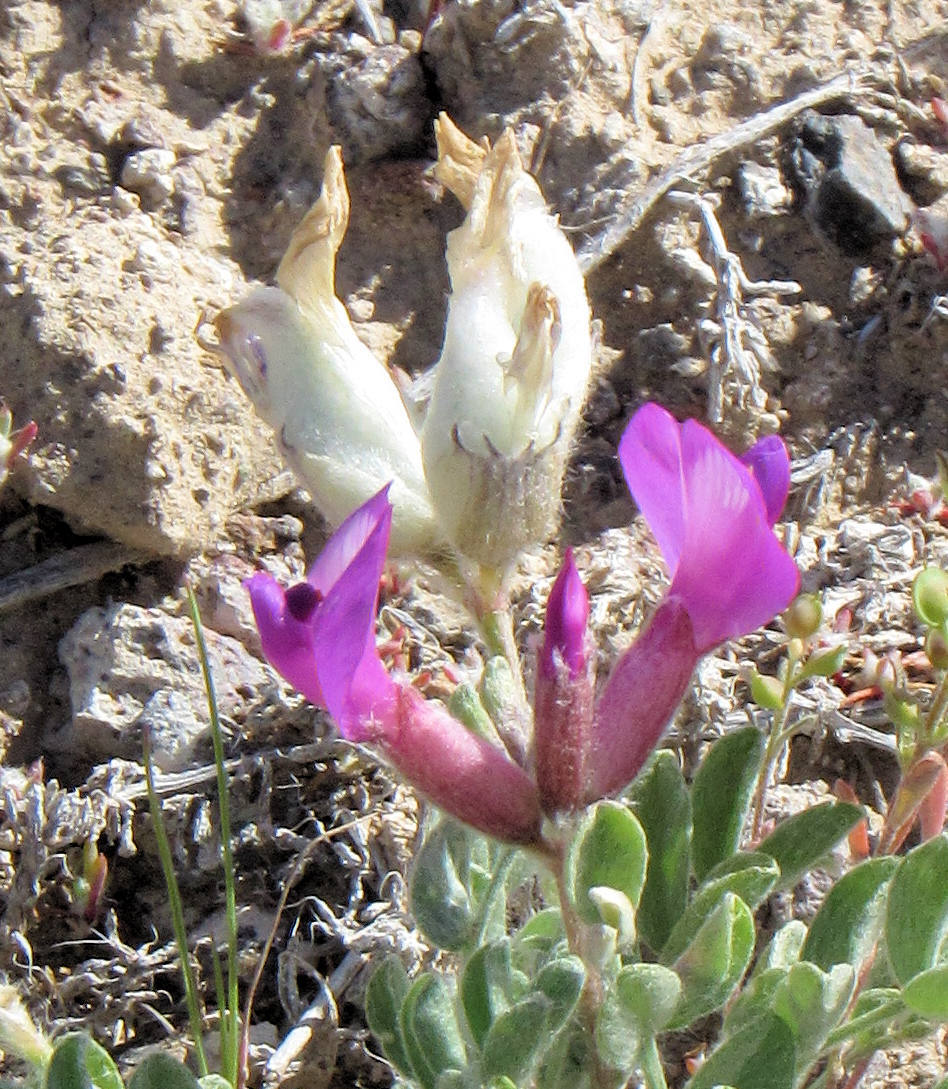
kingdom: Plantae
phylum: Tracheophyta
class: Magnoliopsida
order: Fabales
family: Fabaceae
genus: Astragalus
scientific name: Astragalus purshii
